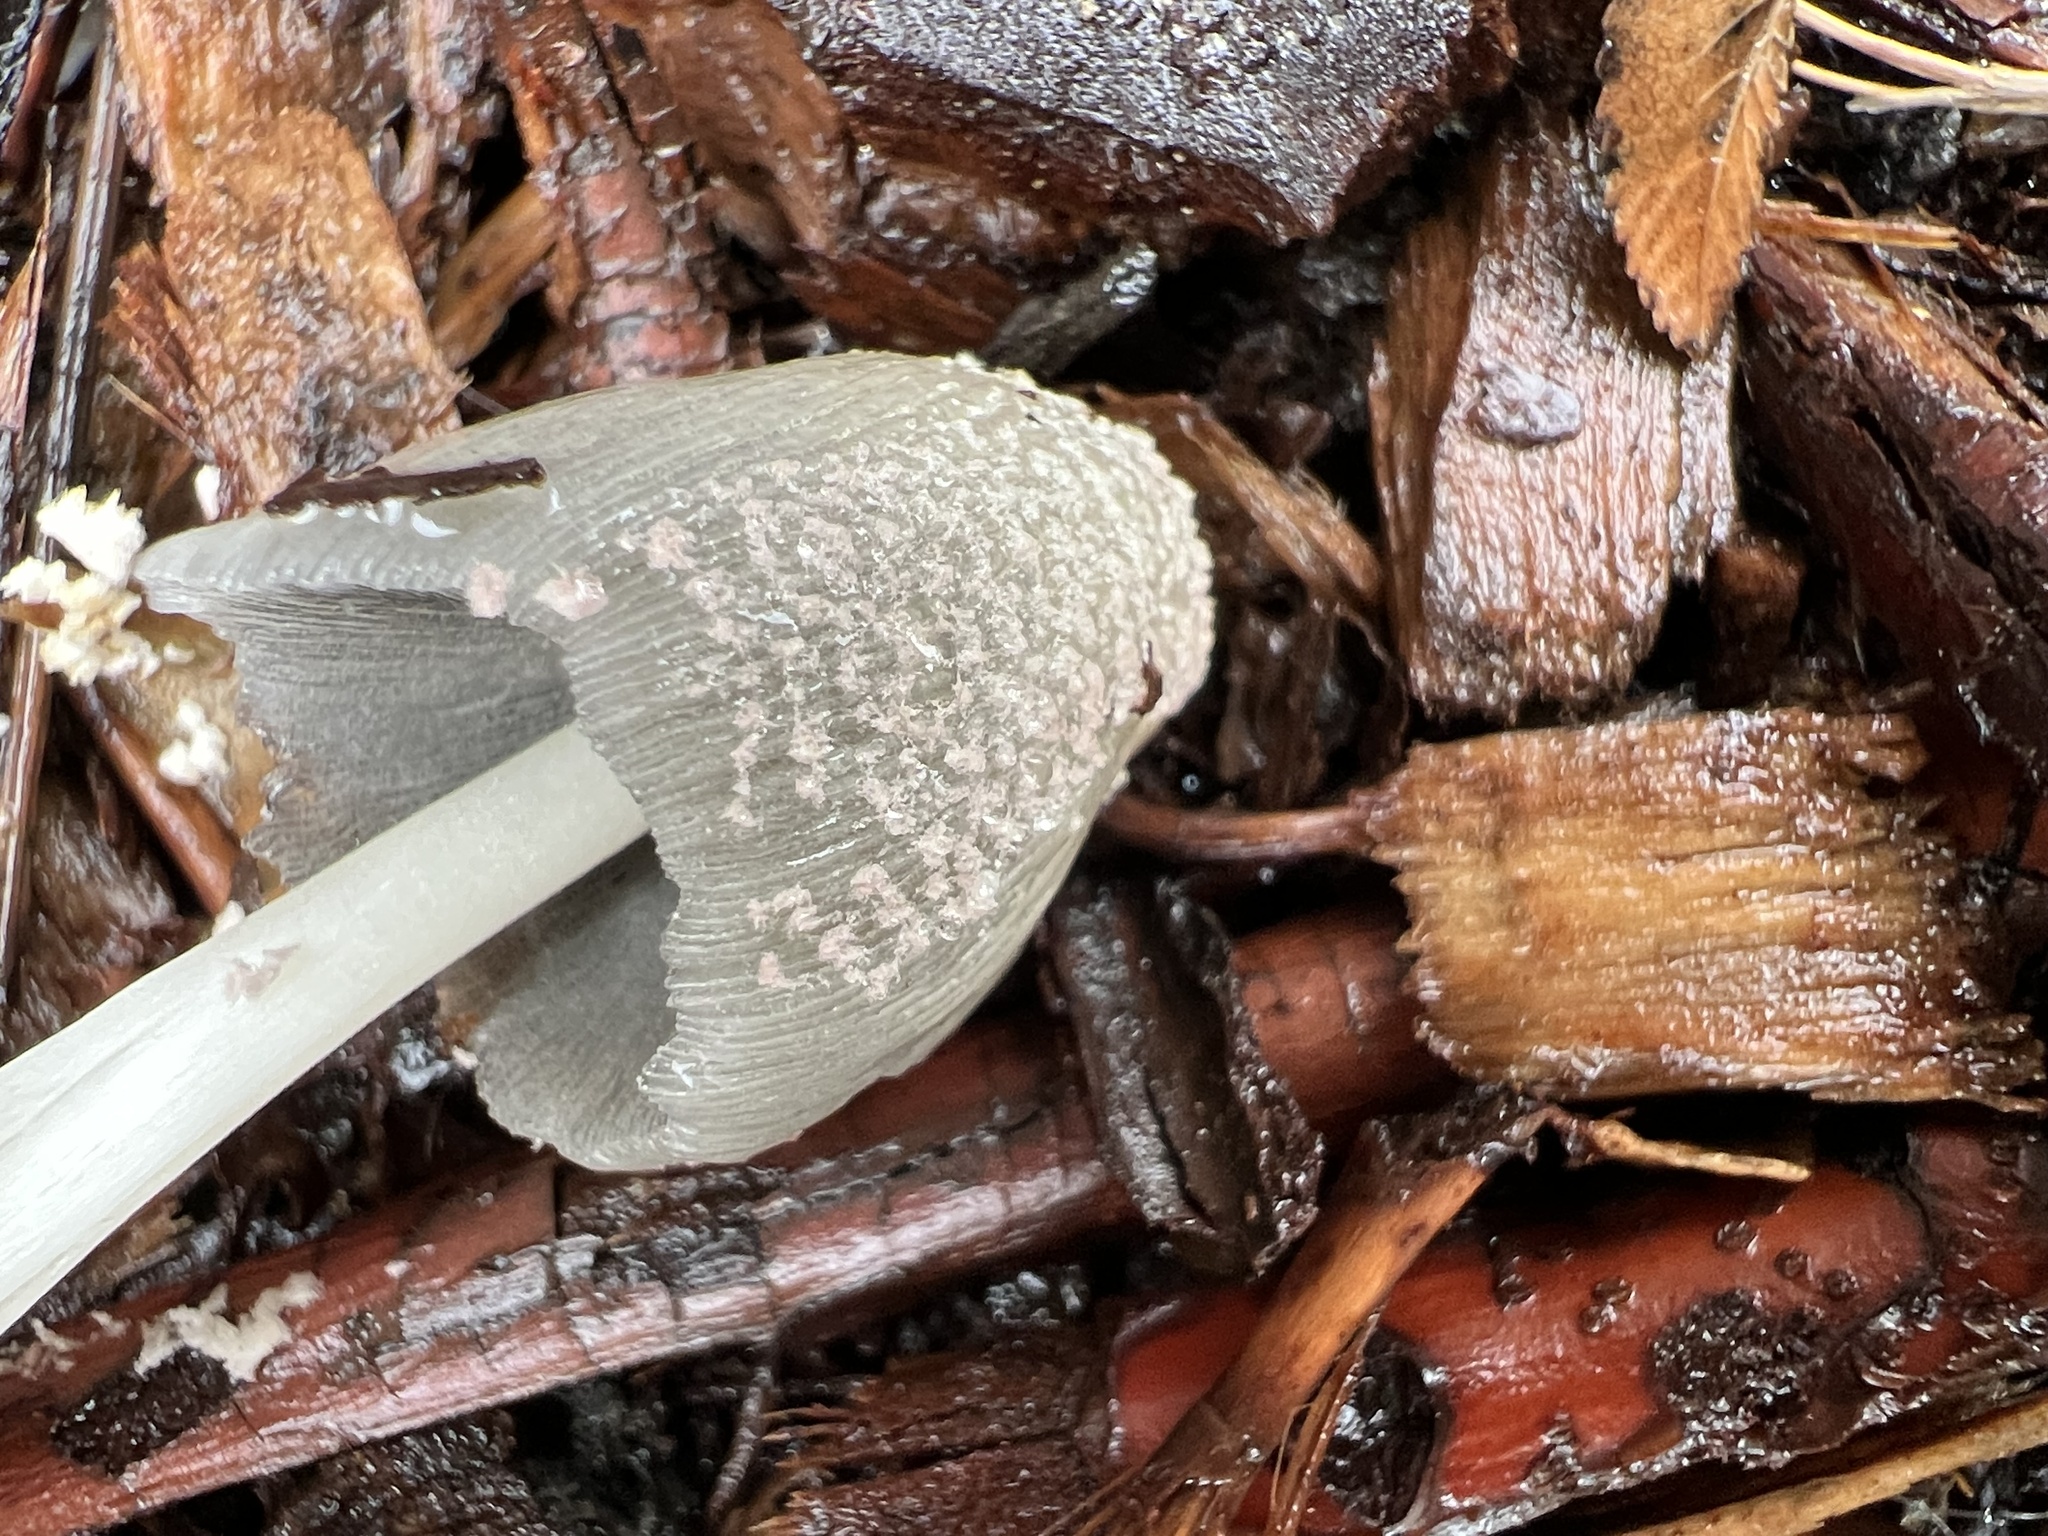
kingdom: Fungi
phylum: Basidiomycota
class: Agaricomycetes
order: Agaricales
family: Psathyrellaceae
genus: Coprinellus
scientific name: Coprinellus flocculosus
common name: Flocculose inkcap
